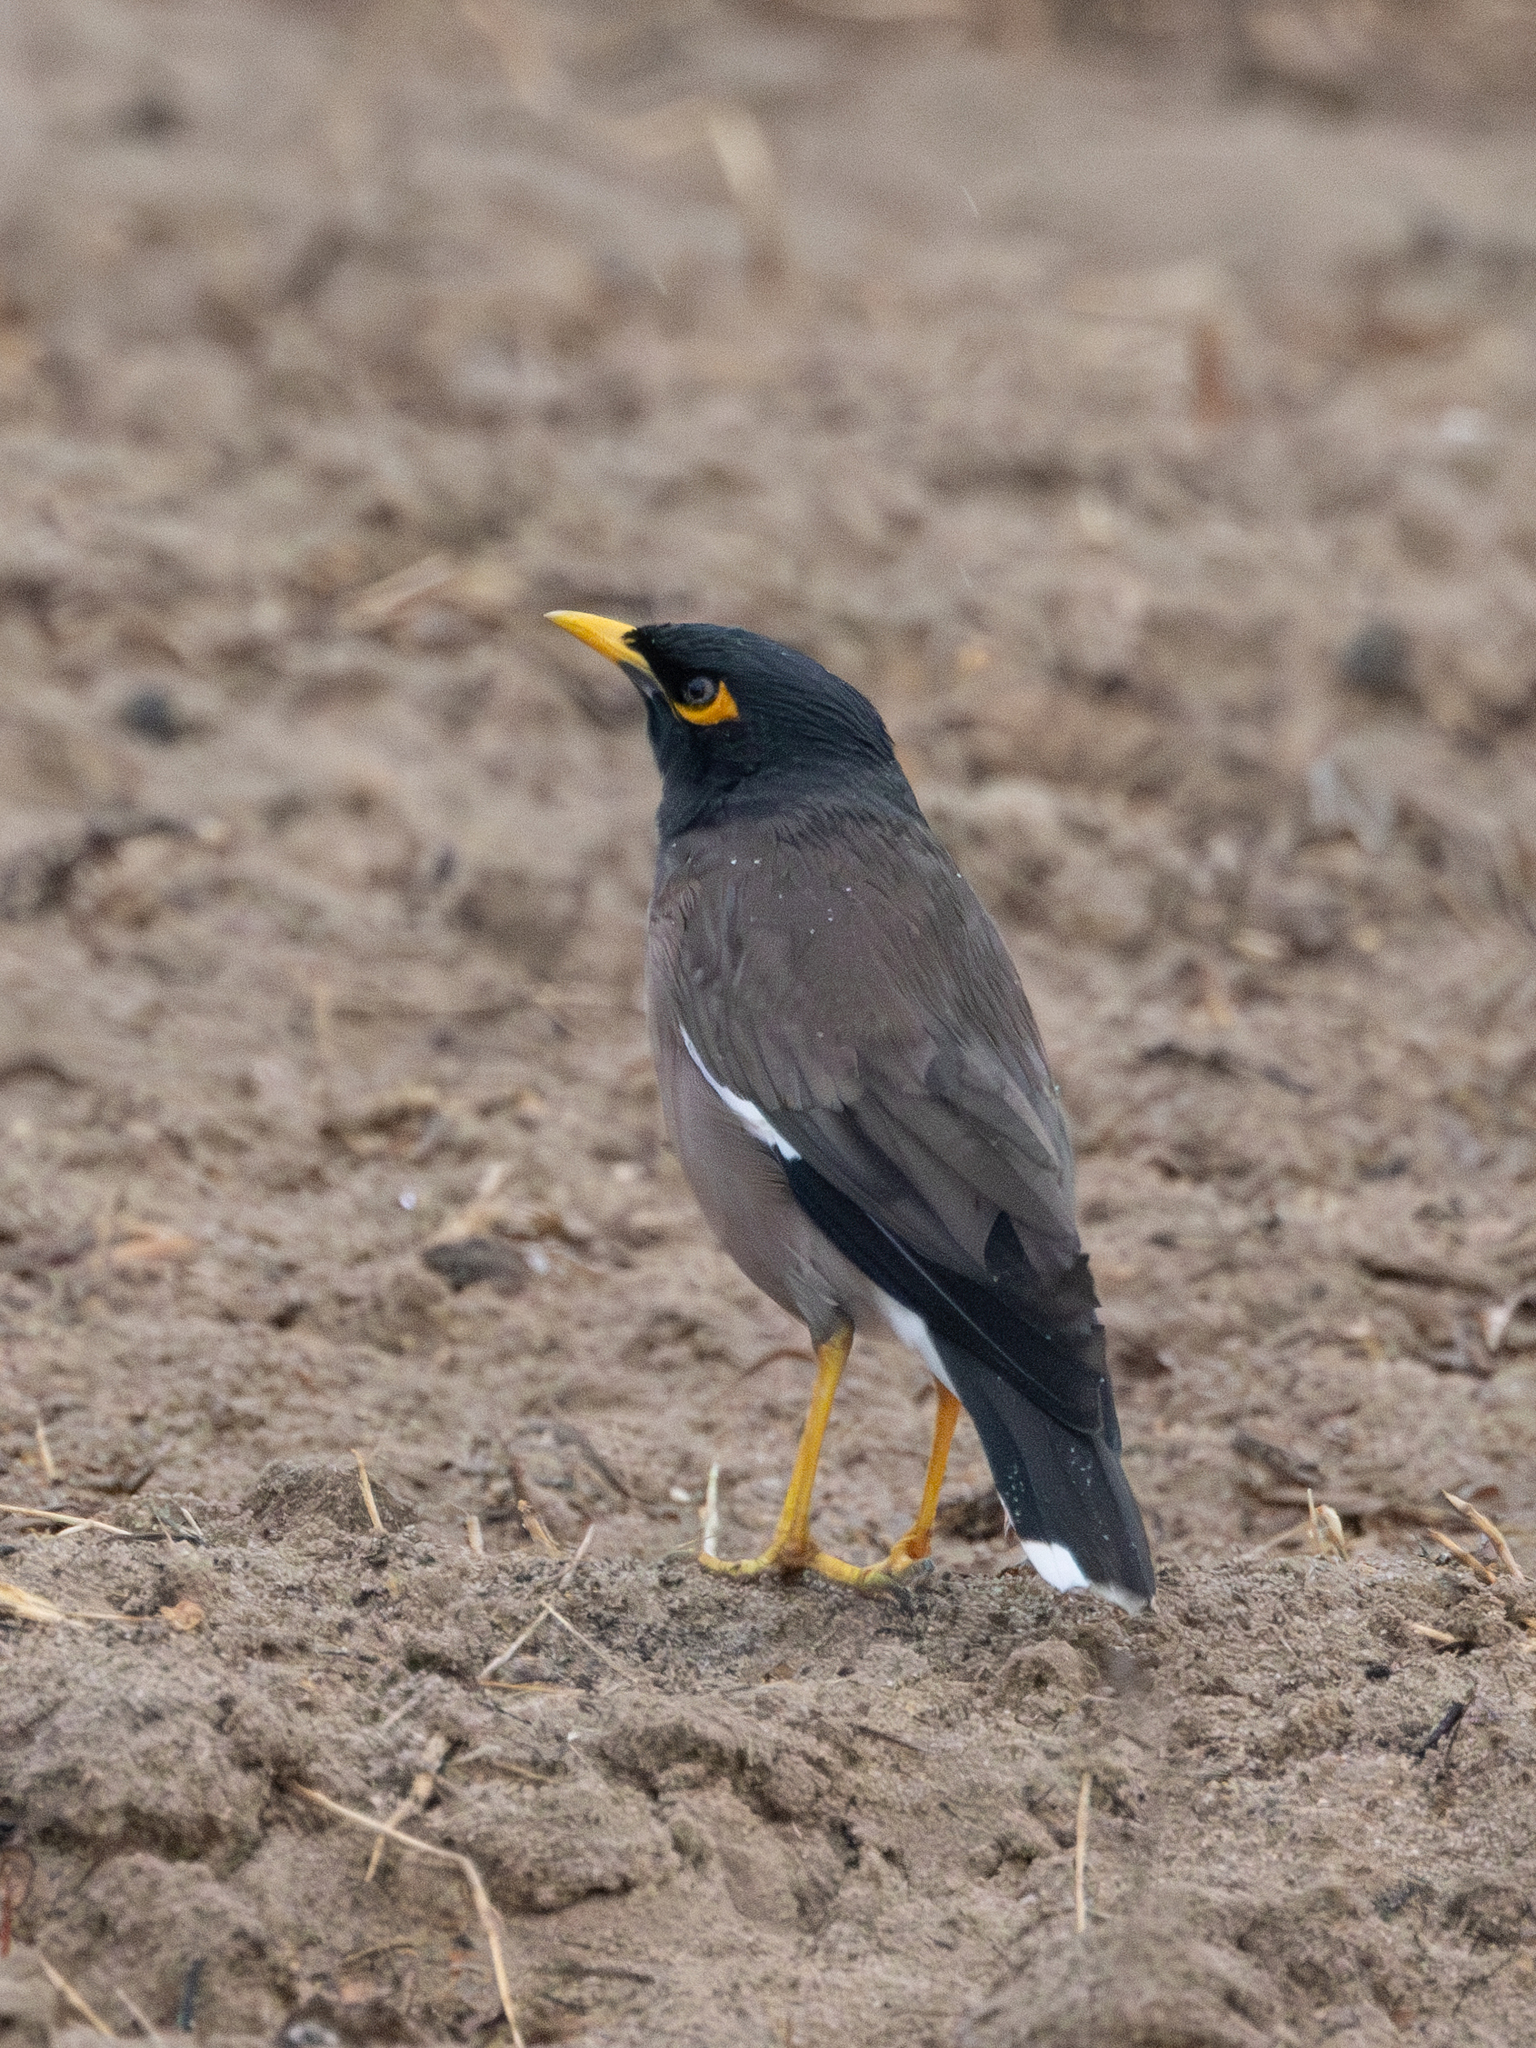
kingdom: Animalia
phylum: Chordata
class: Aves
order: Passeriformes
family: Sturnidae
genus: Acridotheres
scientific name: Acridotheres tristis
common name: Common myna
